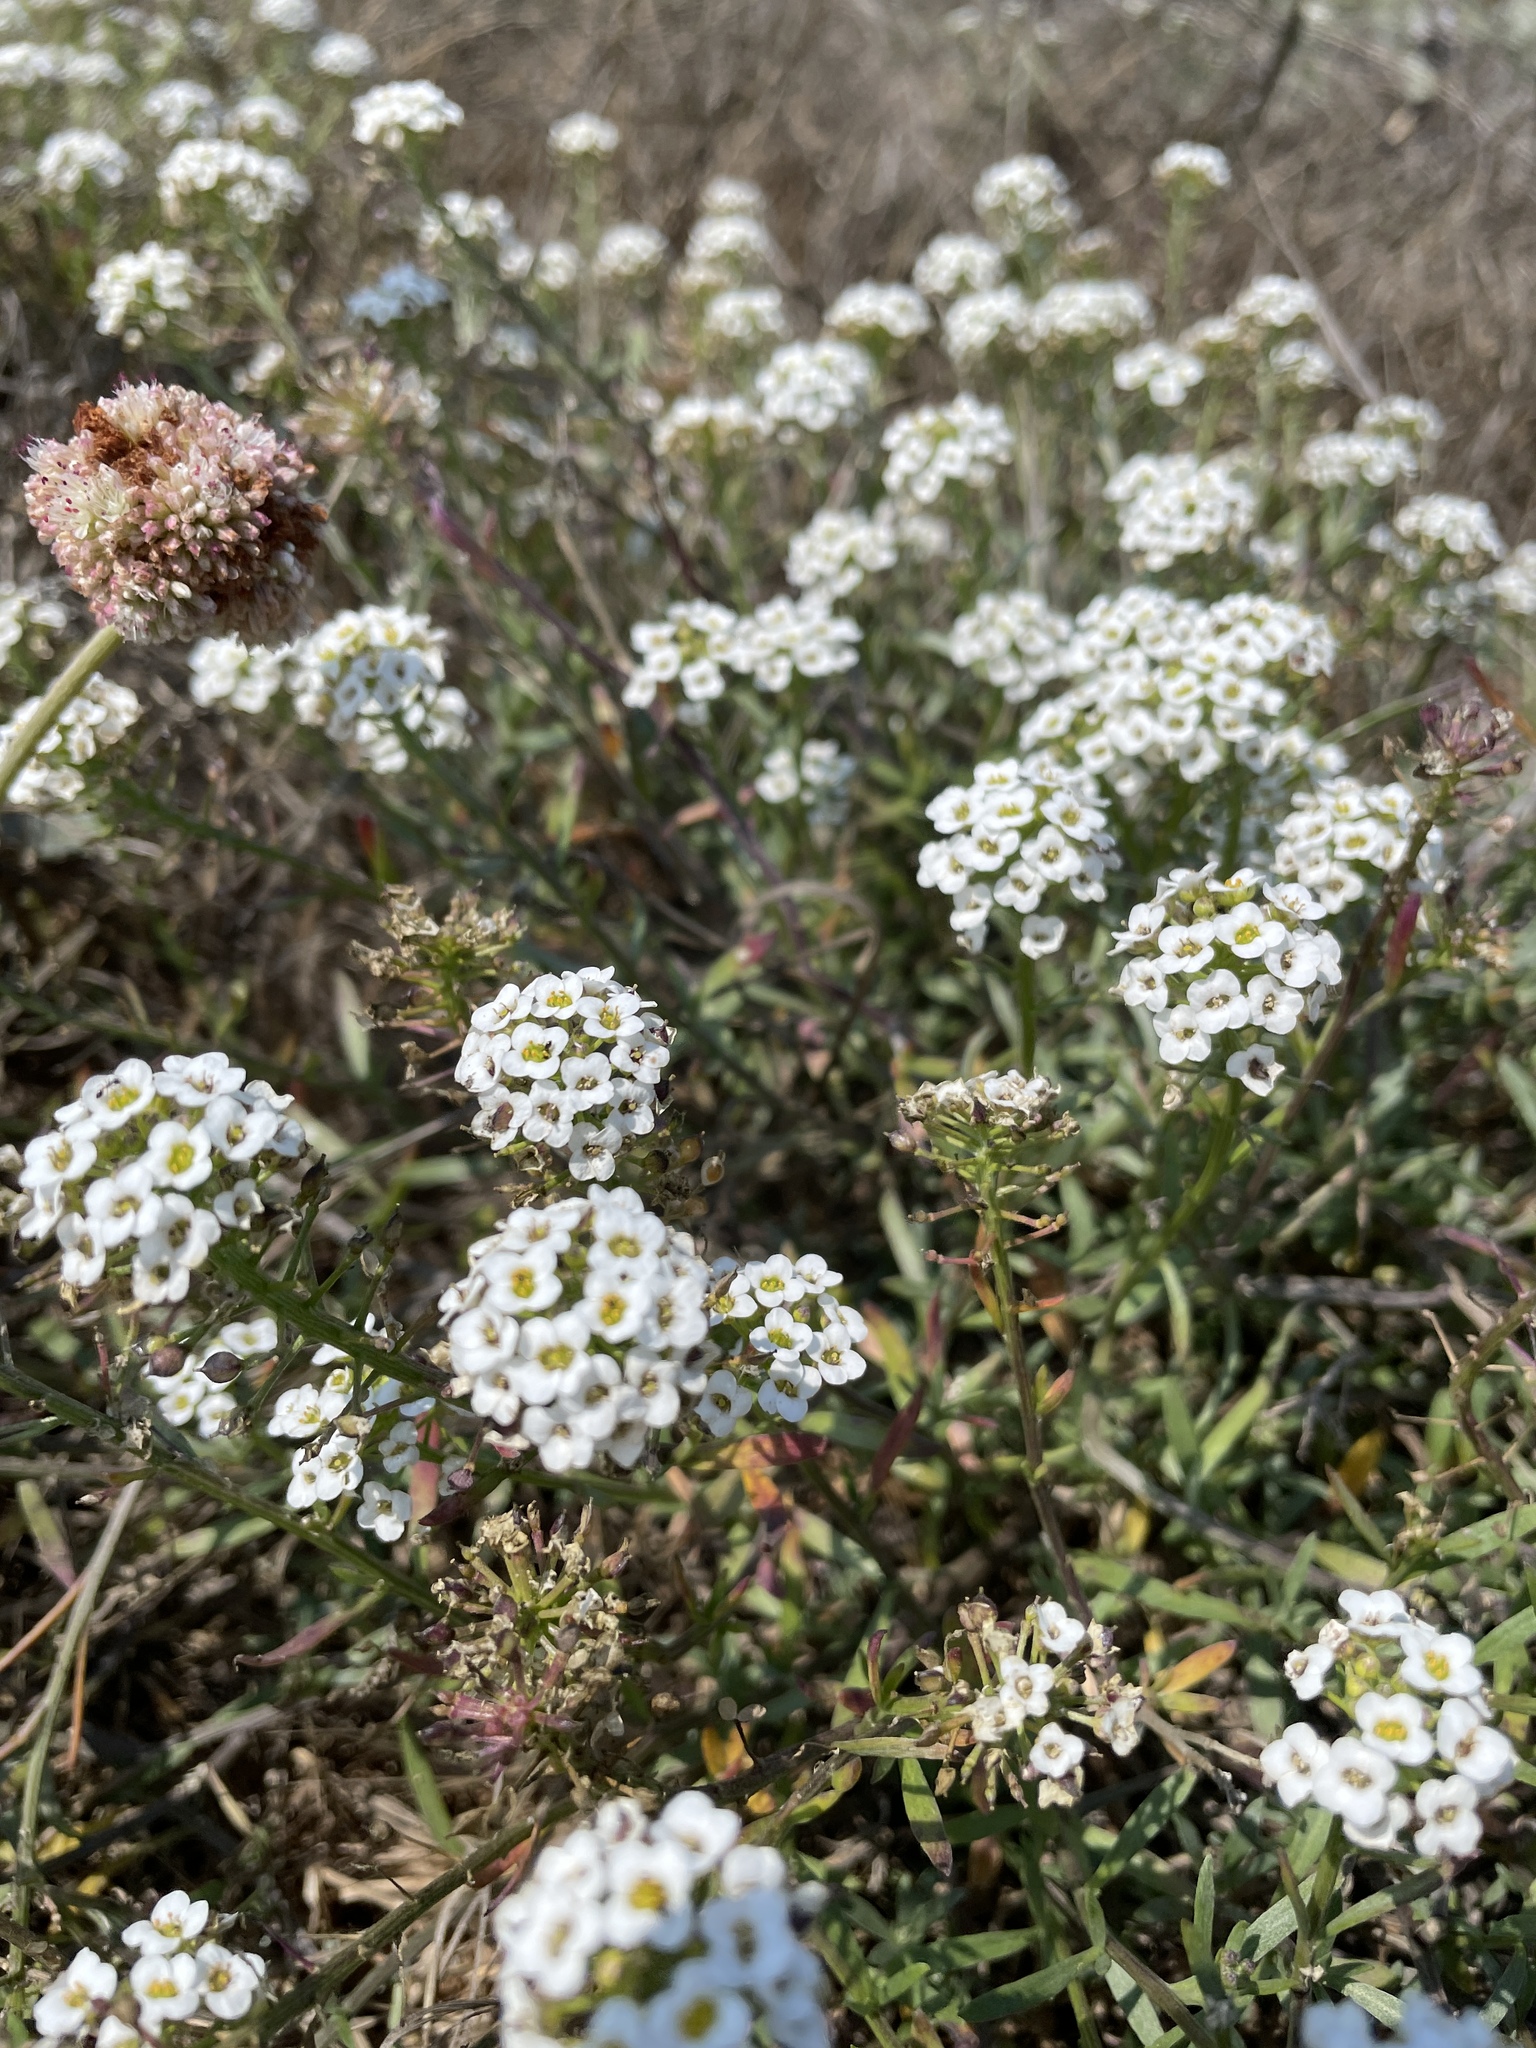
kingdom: Plantae
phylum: Tracheophyta
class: Magnoliopsida
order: Brassicales
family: Brassicaceae
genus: Lobularia
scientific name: Lobularia maritima
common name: Sweet alison
